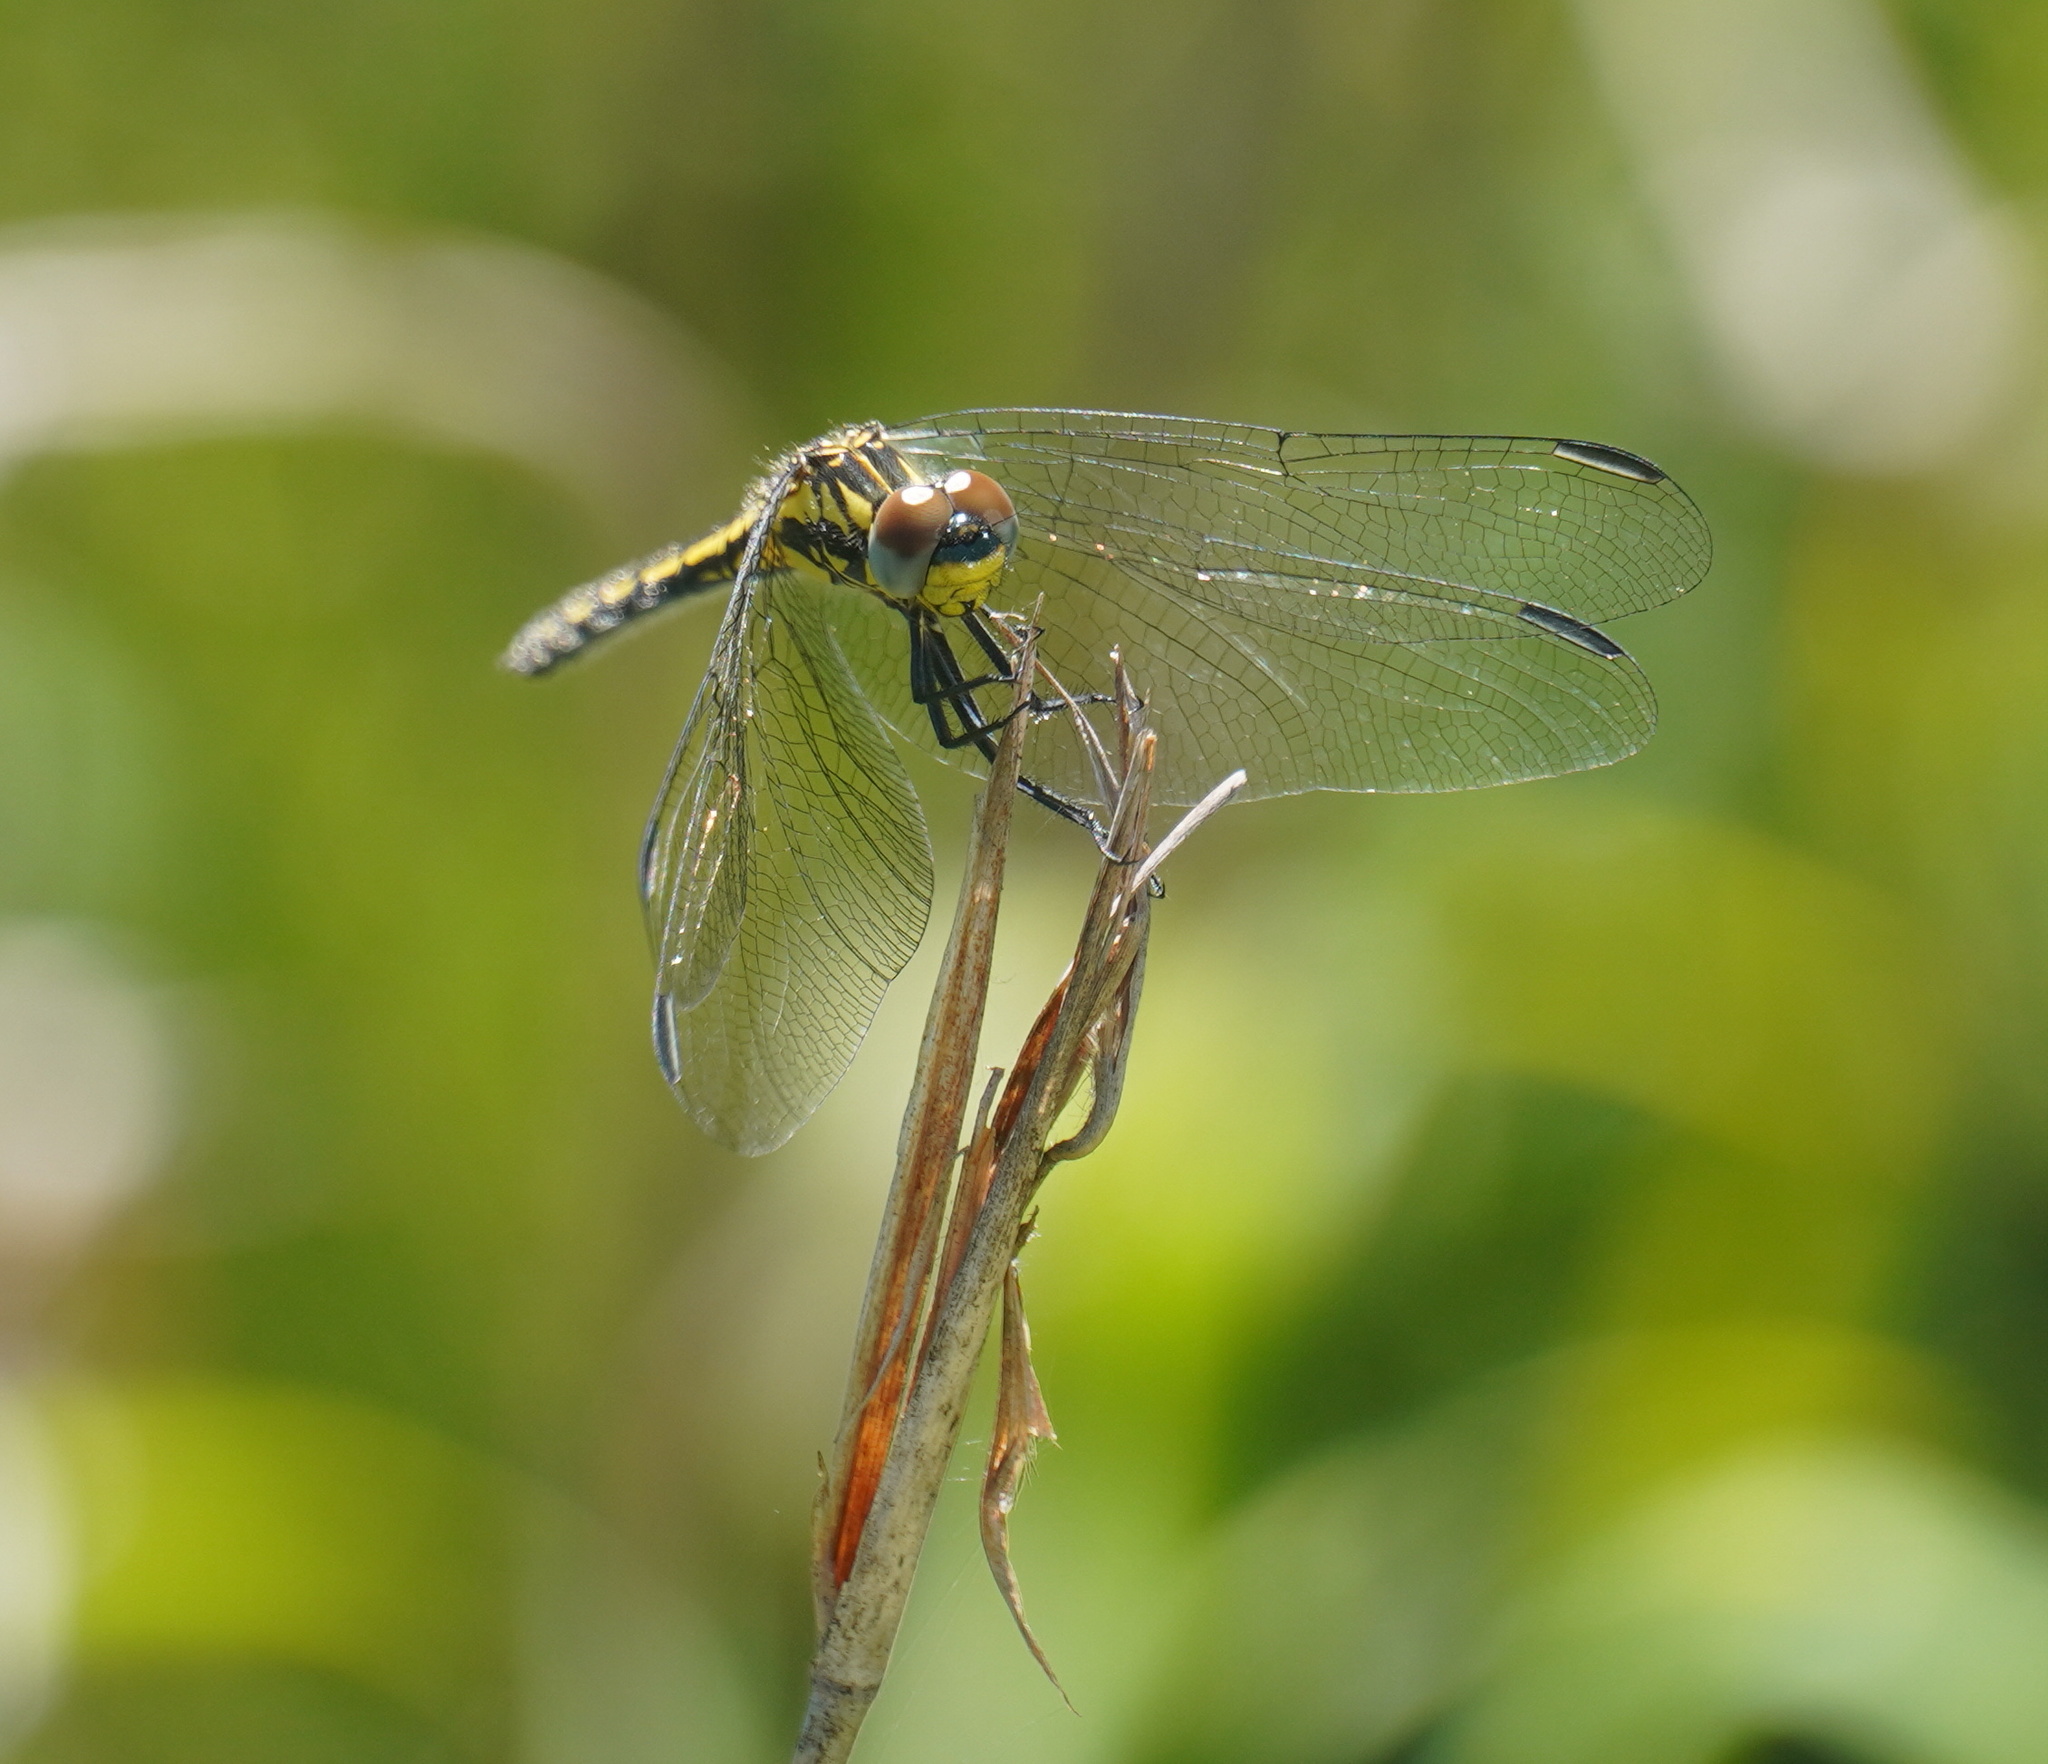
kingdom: Animalia
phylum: Arthropoda
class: Insecta
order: Odonata
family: Libellulidae
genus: Trithemis
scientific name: Trithemis stictica
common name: Jaunty dropwing
